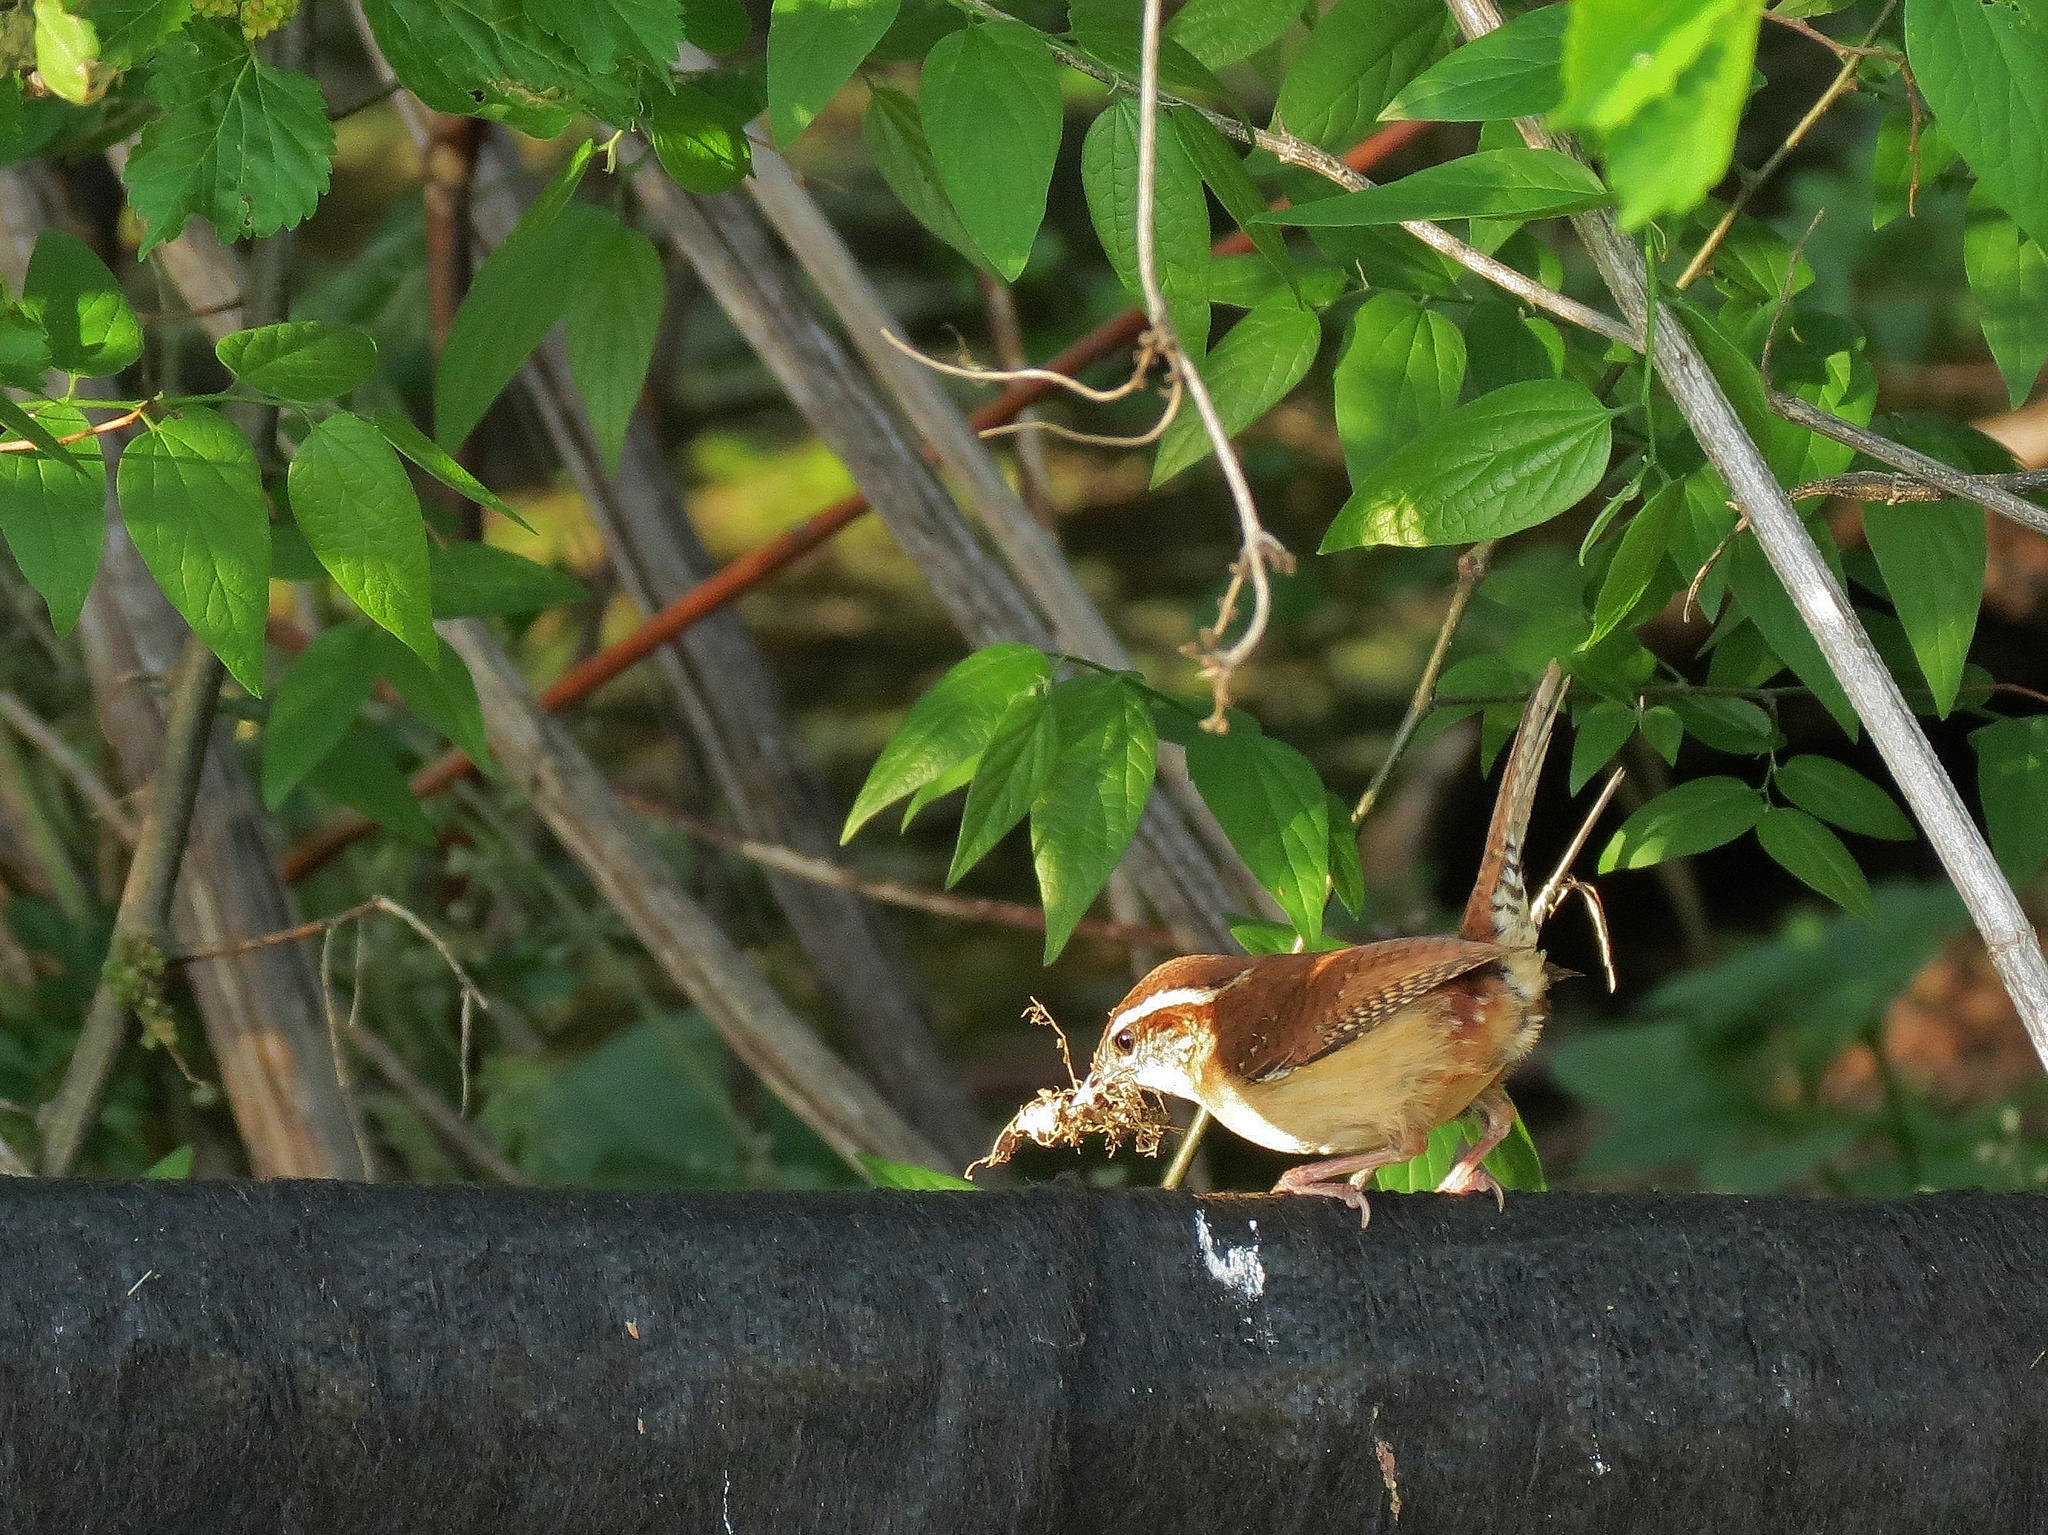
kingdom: Animalia
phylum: Chordata
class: Aves
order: Passeriformes
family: Troglodytidae
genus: Thryothorus
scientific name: Thryothorus ludovicianus
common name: Carolina wren
